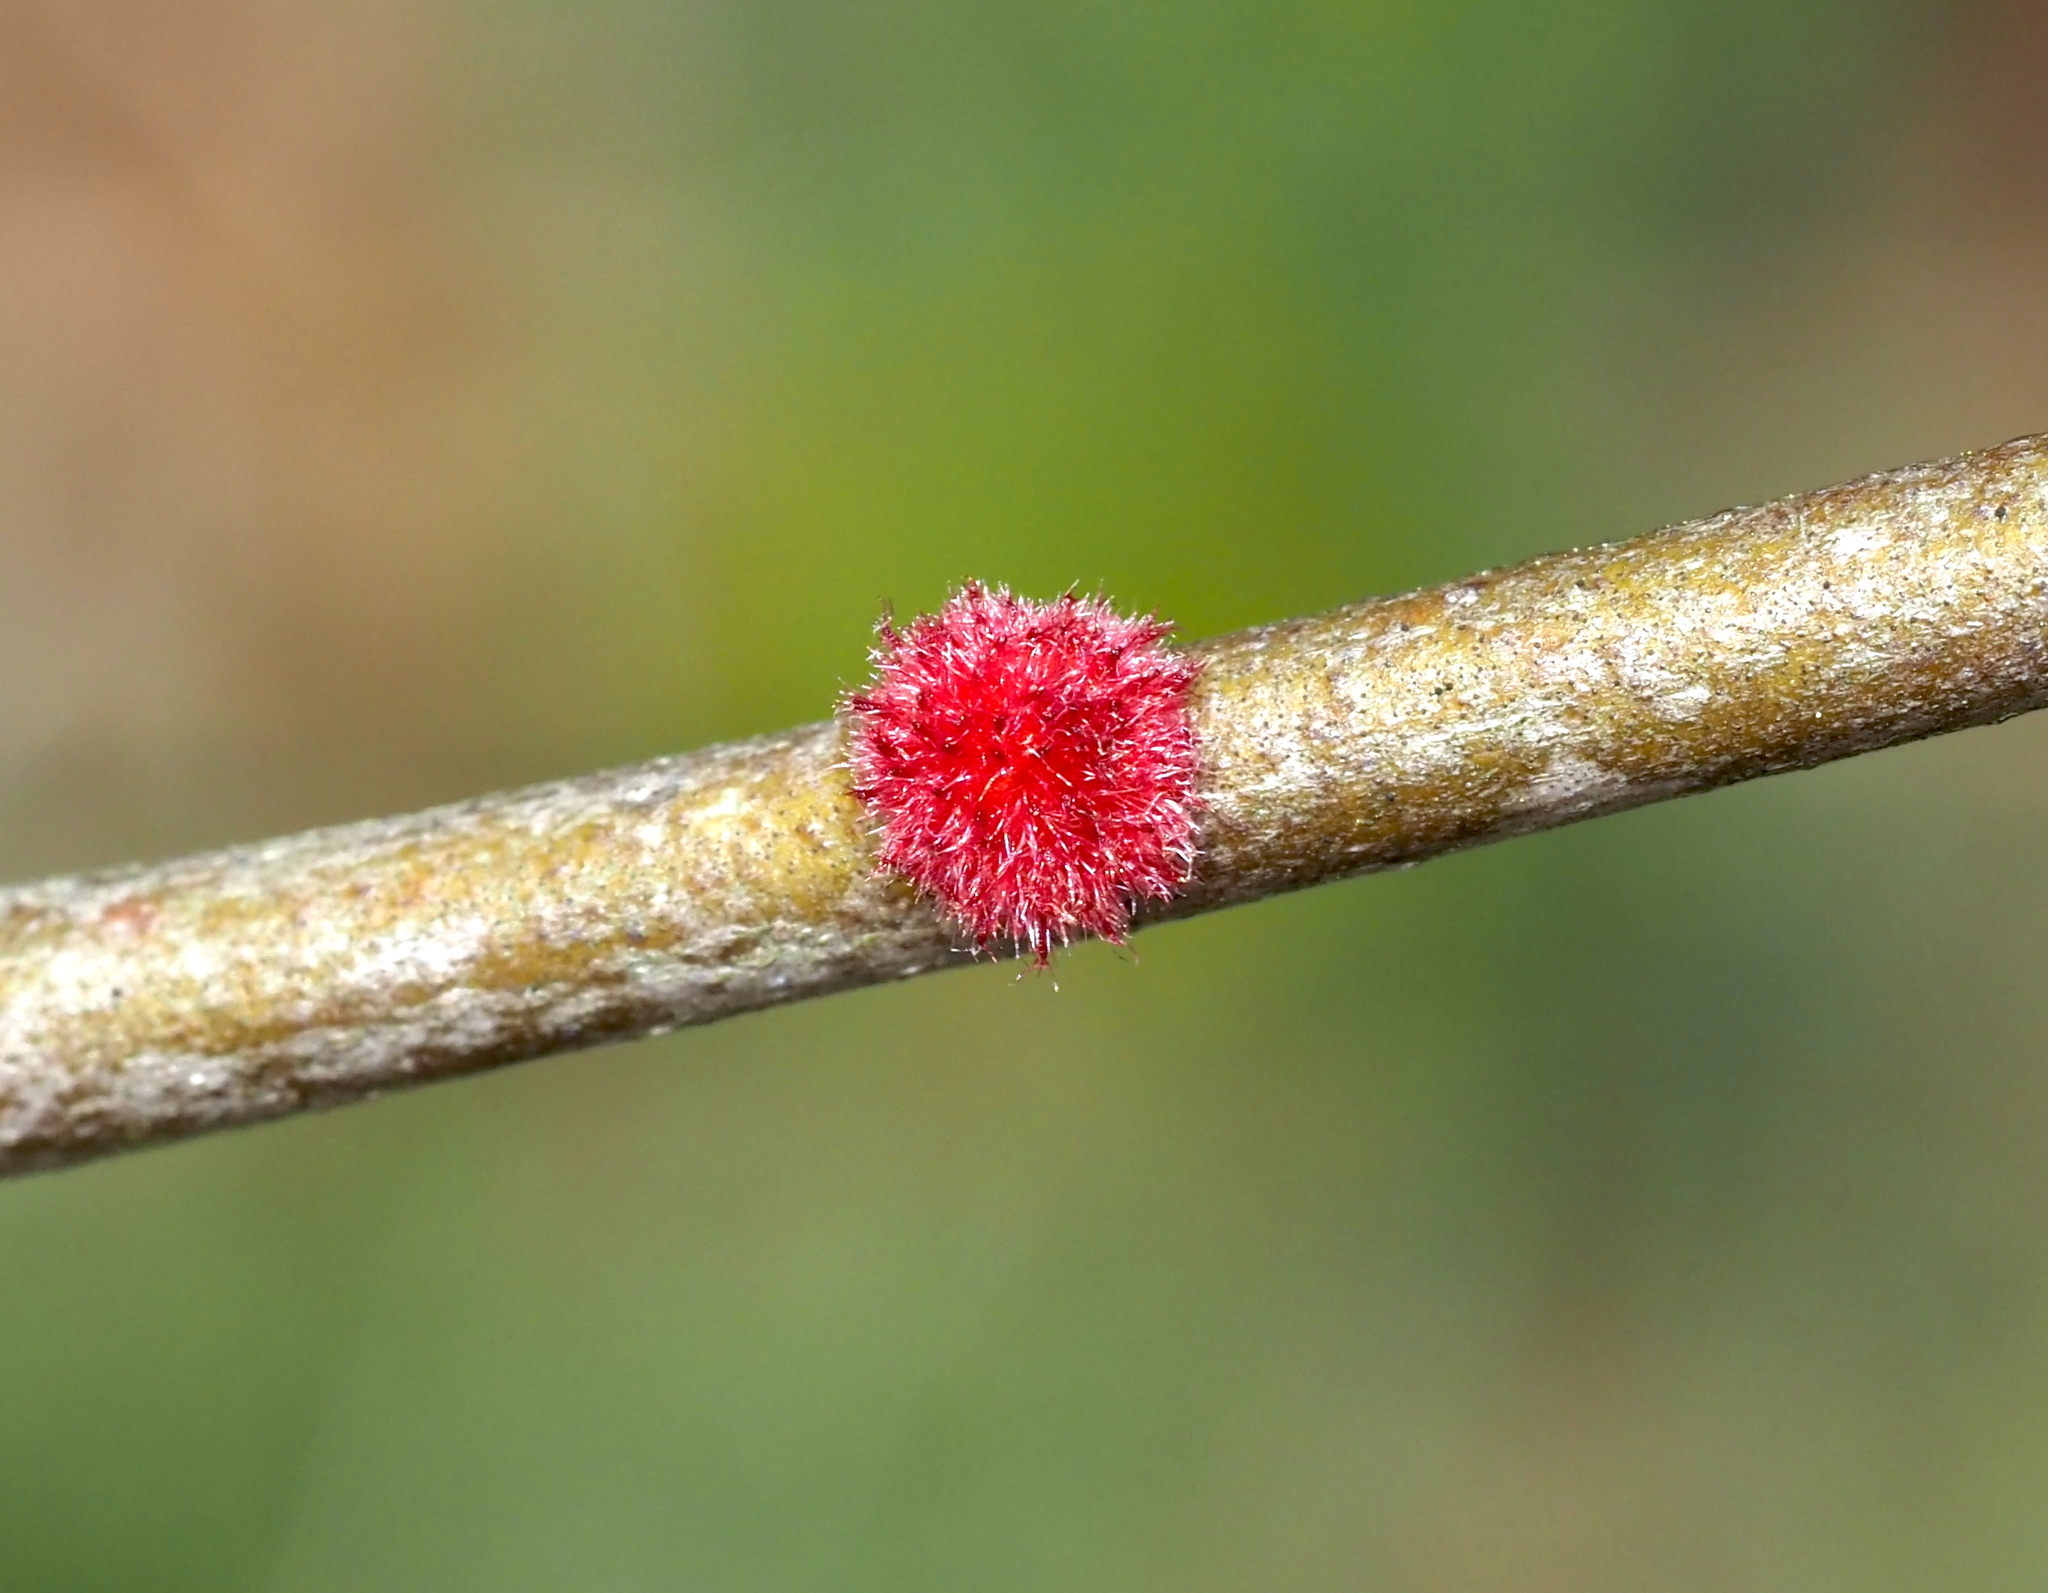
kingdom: Animalia
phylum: Arthropoda
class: Insecta
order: Hymenoptera
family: Cynipidae
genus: Dryocosmus
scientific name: Dryocosmus
